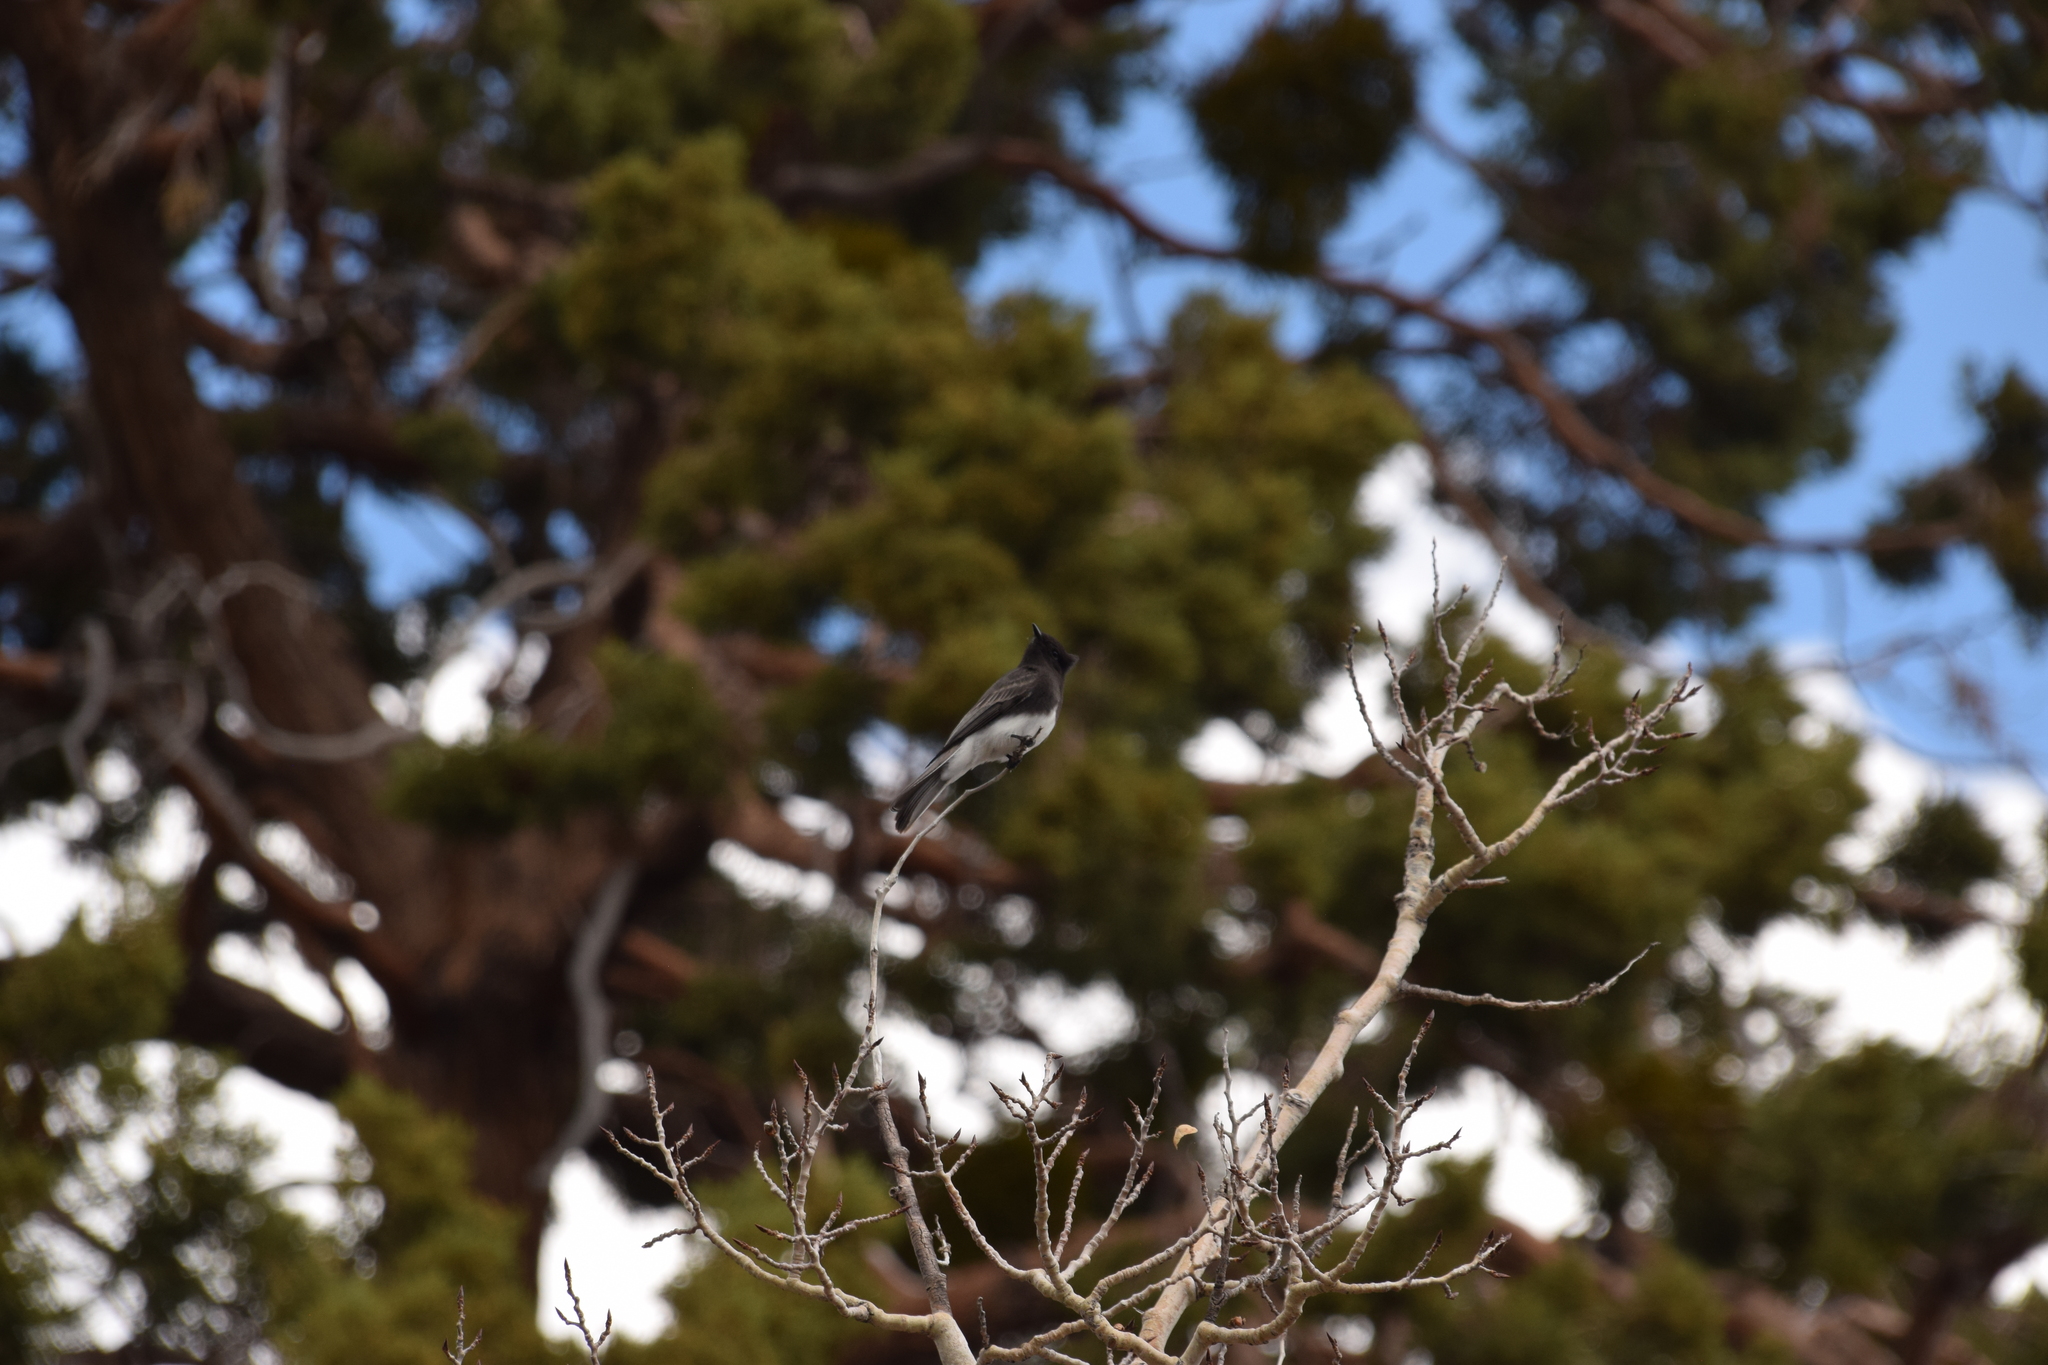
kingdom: Animalia
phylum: Chordata
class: Aves
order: Passeriformes
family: Tyrannidae
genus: Sayornis
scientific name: Sayornis nigricans
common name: Black phoebe
